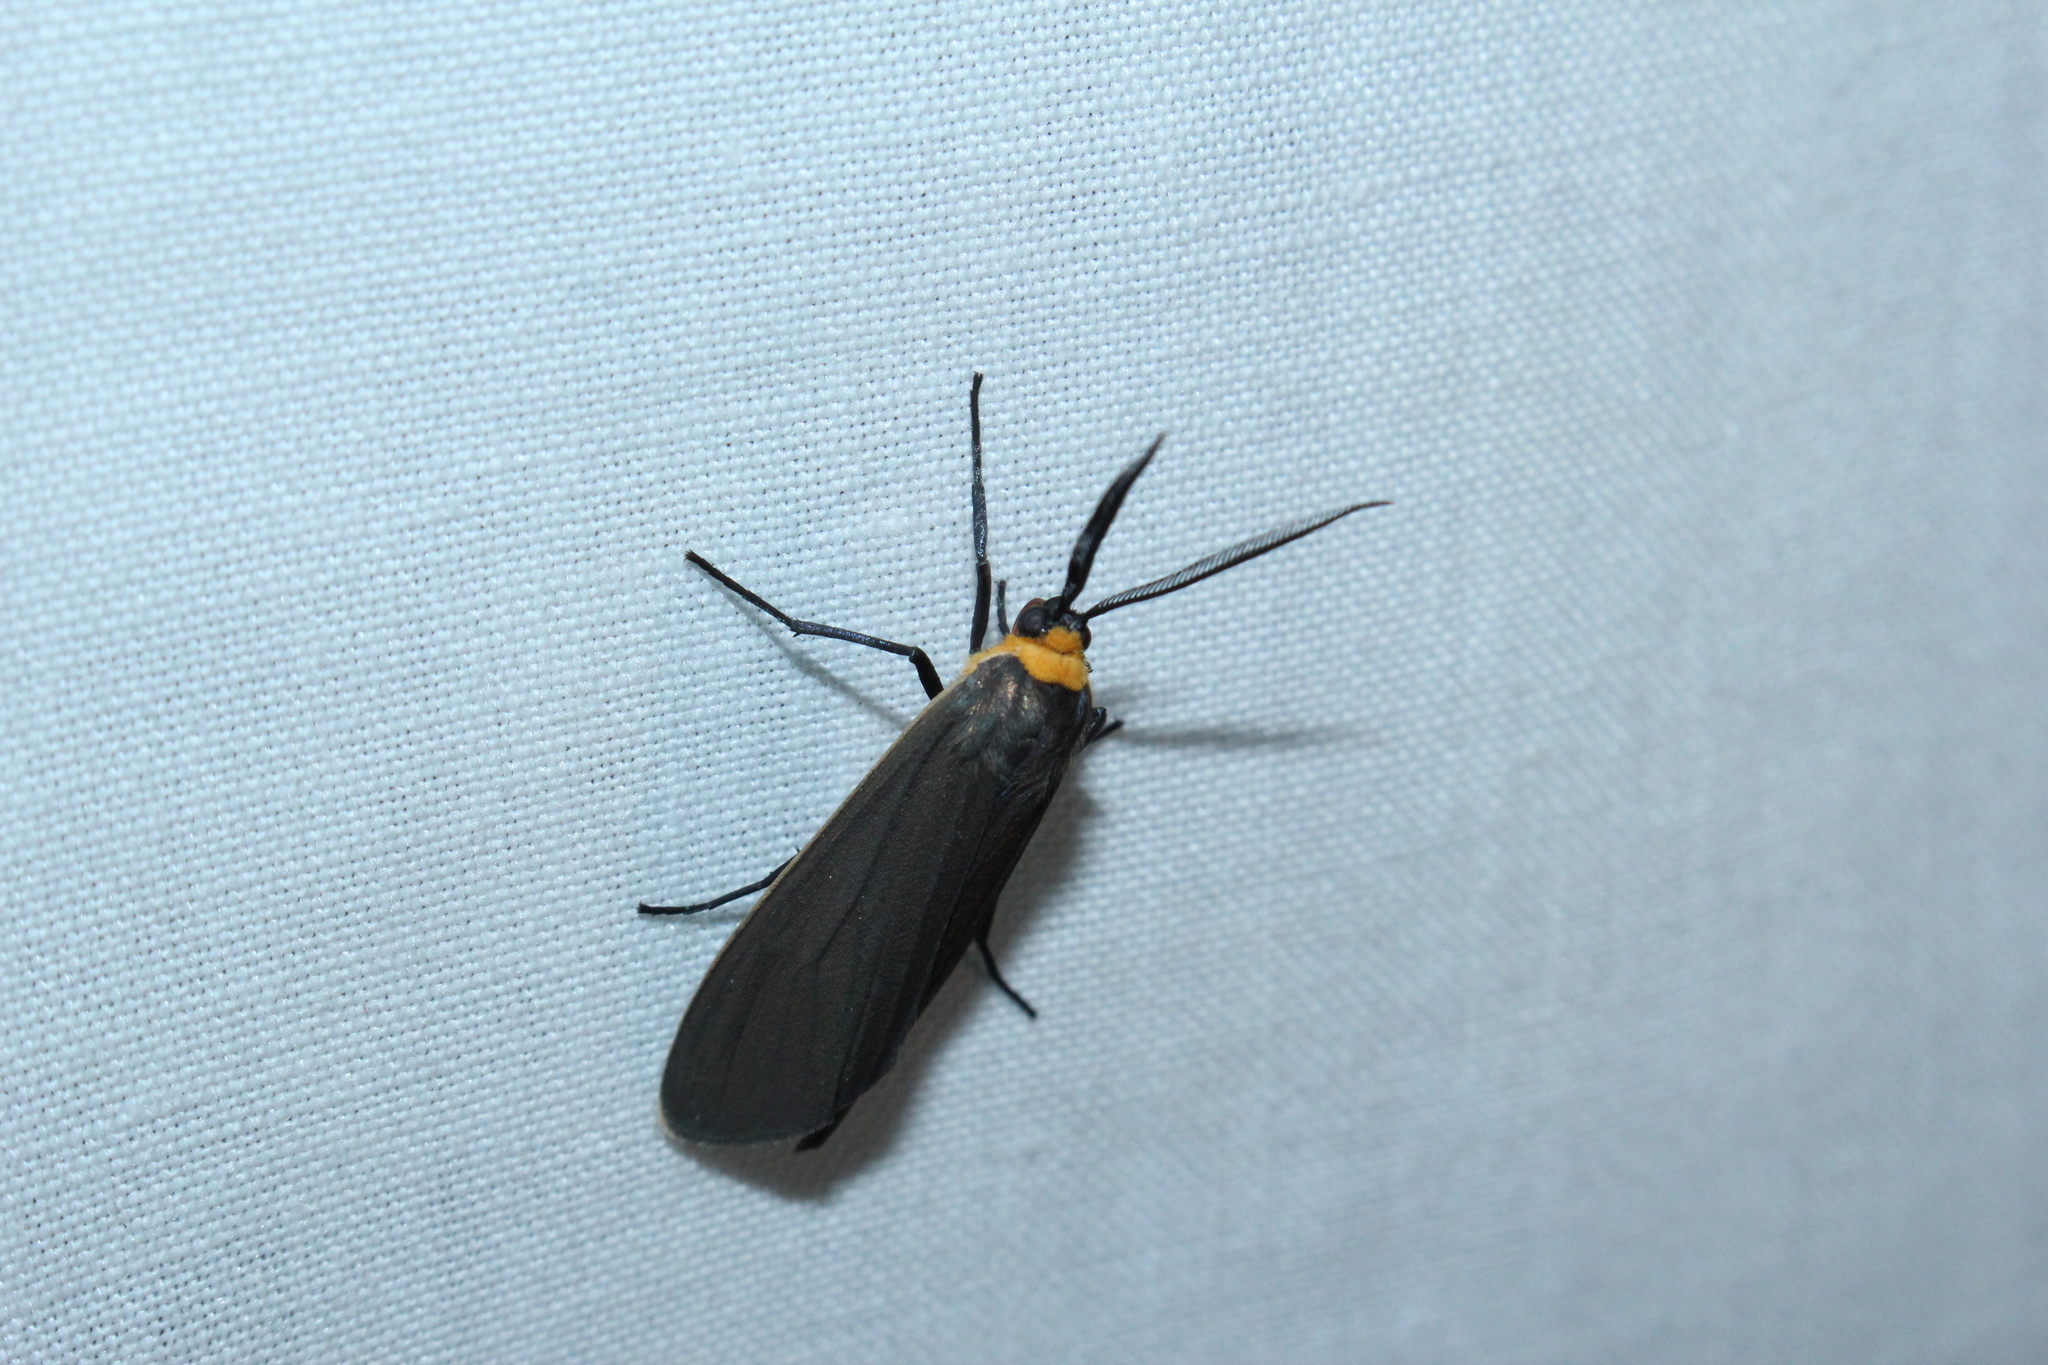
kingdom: Animalia
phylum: Arthropoda
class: Insecta
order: Lepidoptera
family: Erebidae
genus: Cisseps
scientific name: Cisseps fulvicollis
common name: Yellow-collared scape moth
